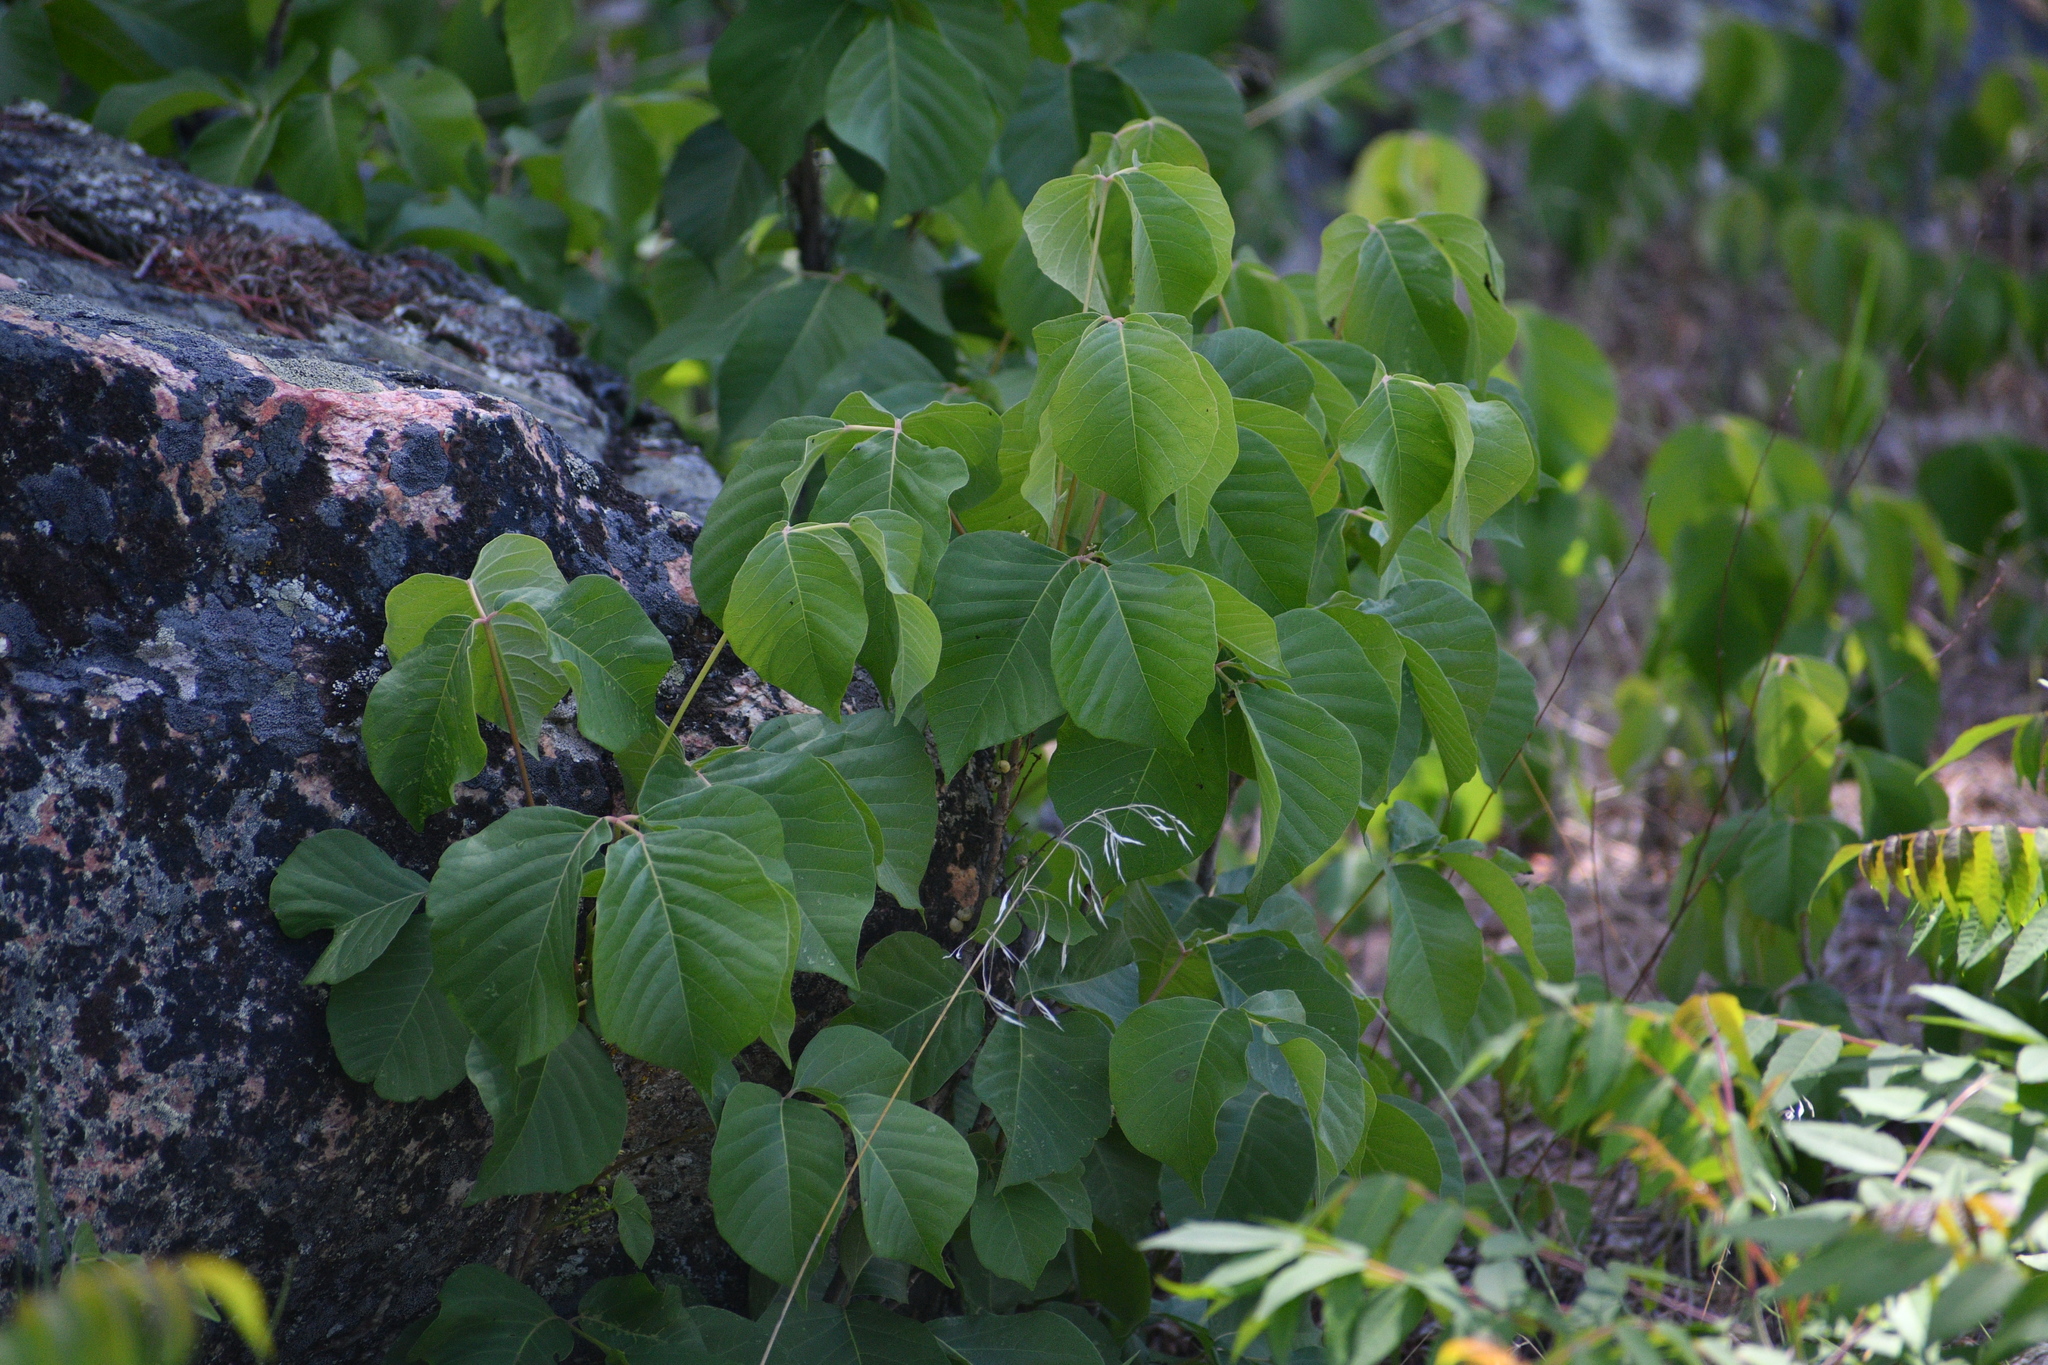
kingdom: Plantae
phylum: Tracheophyta
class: Magnoliopsida
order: Sapindales
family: Anacardiaceae
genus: Toxicodendron
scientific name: Toxicodendron rydbergii
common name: Rydberg's poison-ivy
